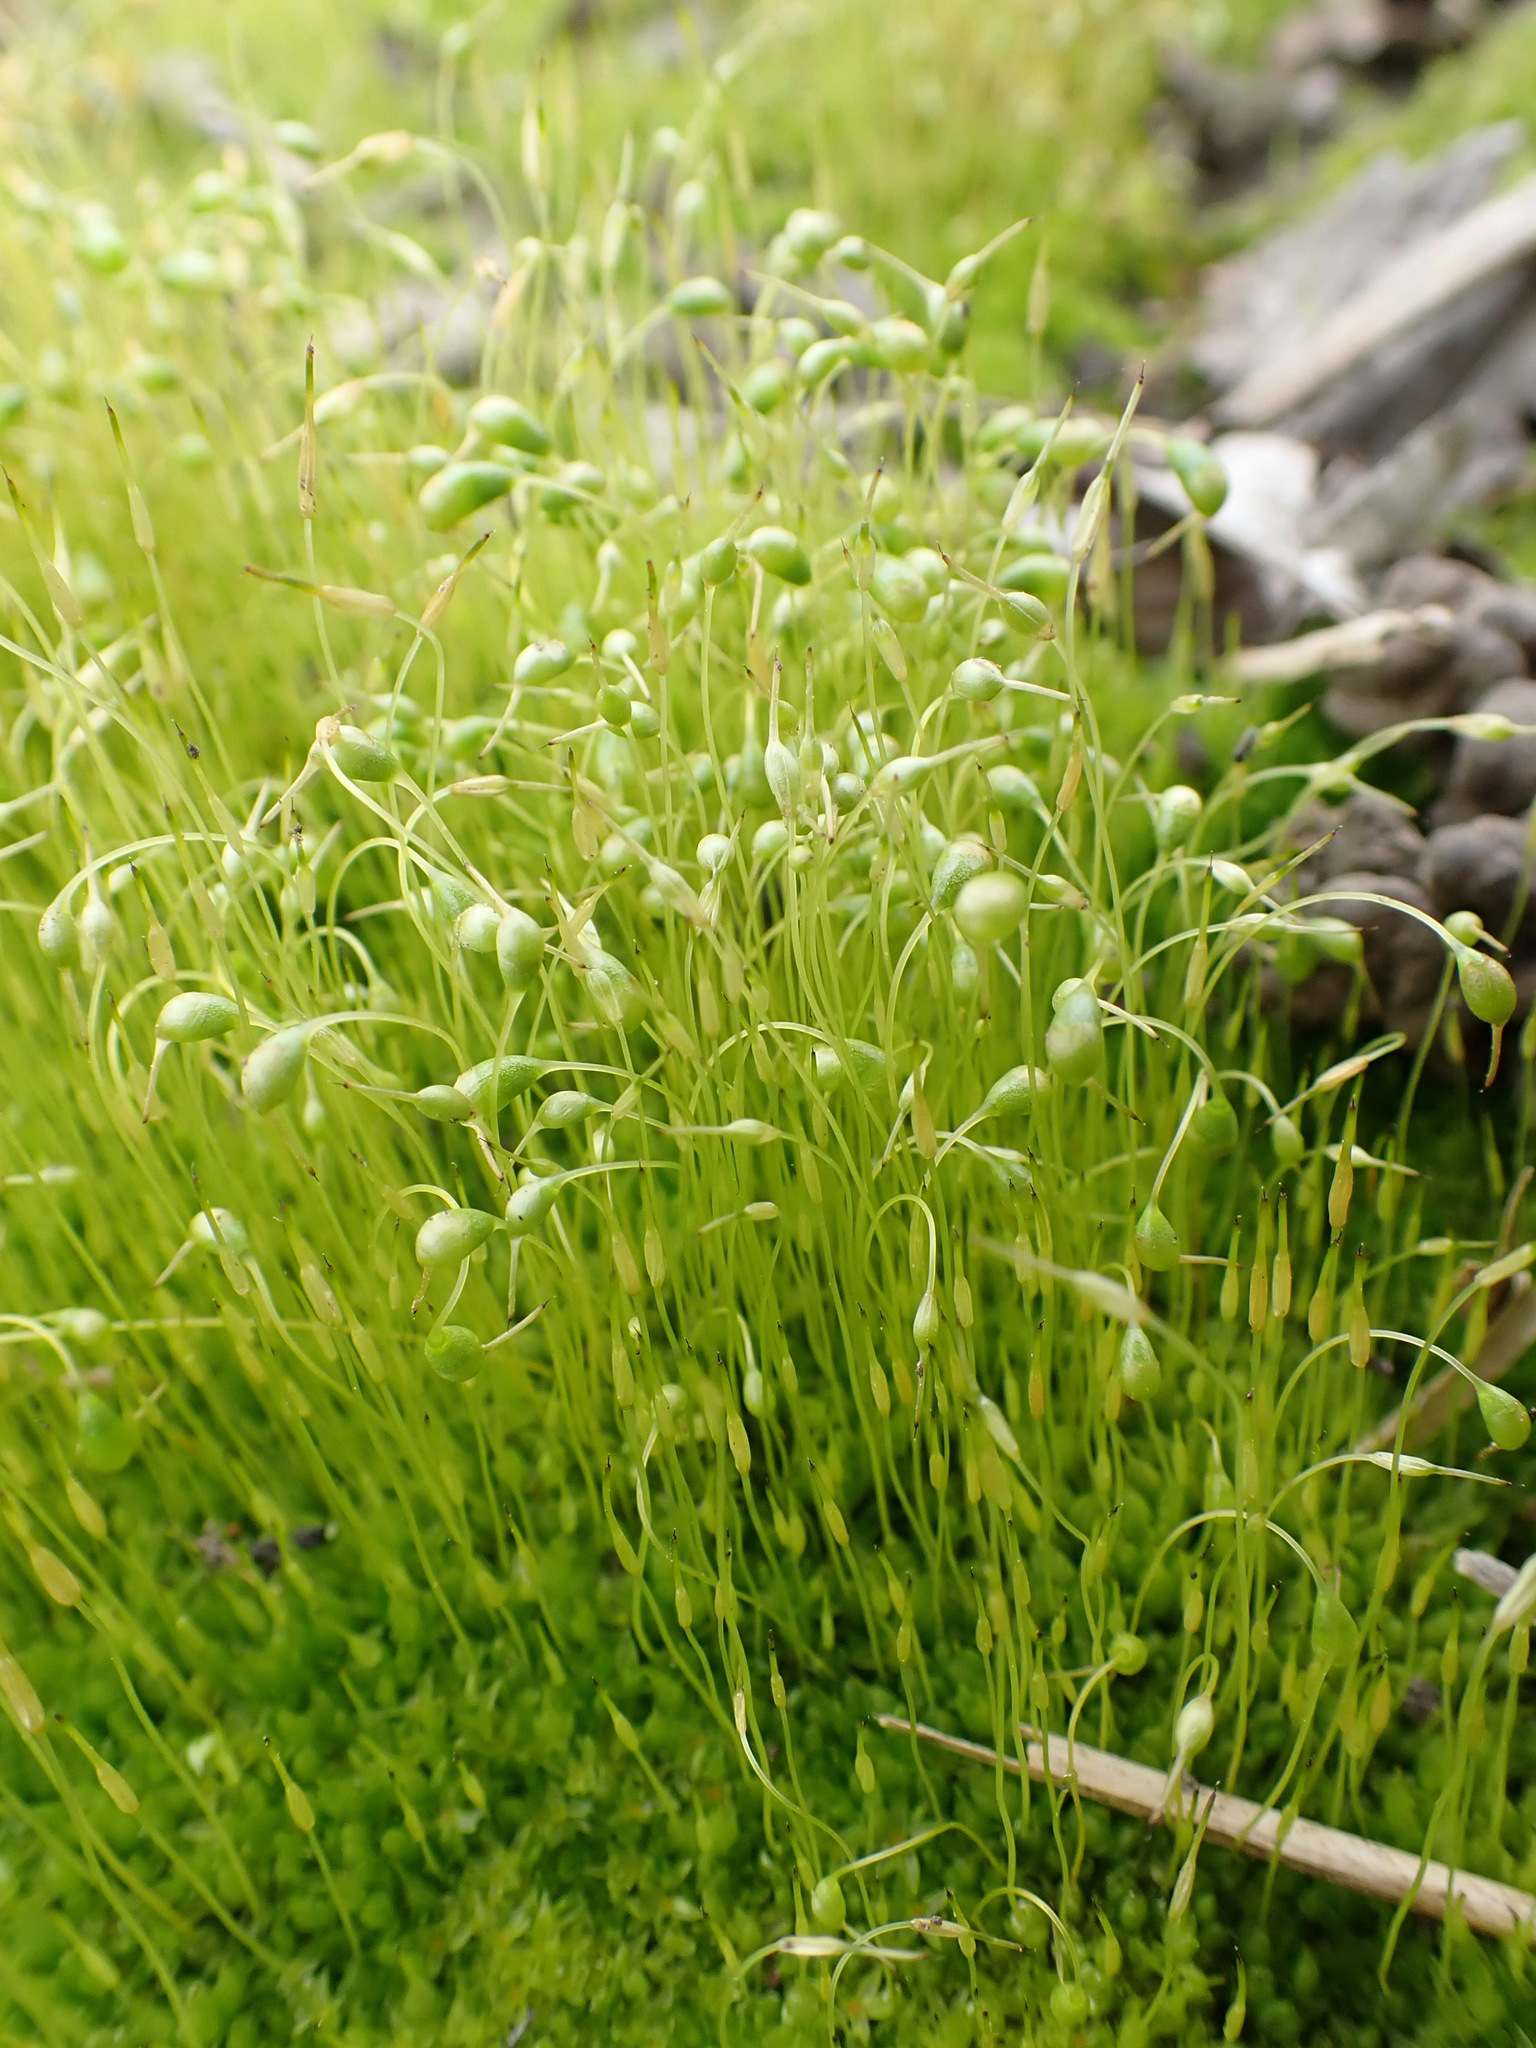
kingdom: Plantae
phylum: Bryophyta
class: Bryopsida
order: Funariales
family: Funariaceae
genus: Funaria
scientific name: Funaria hygrometrica
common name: Common cord moss
